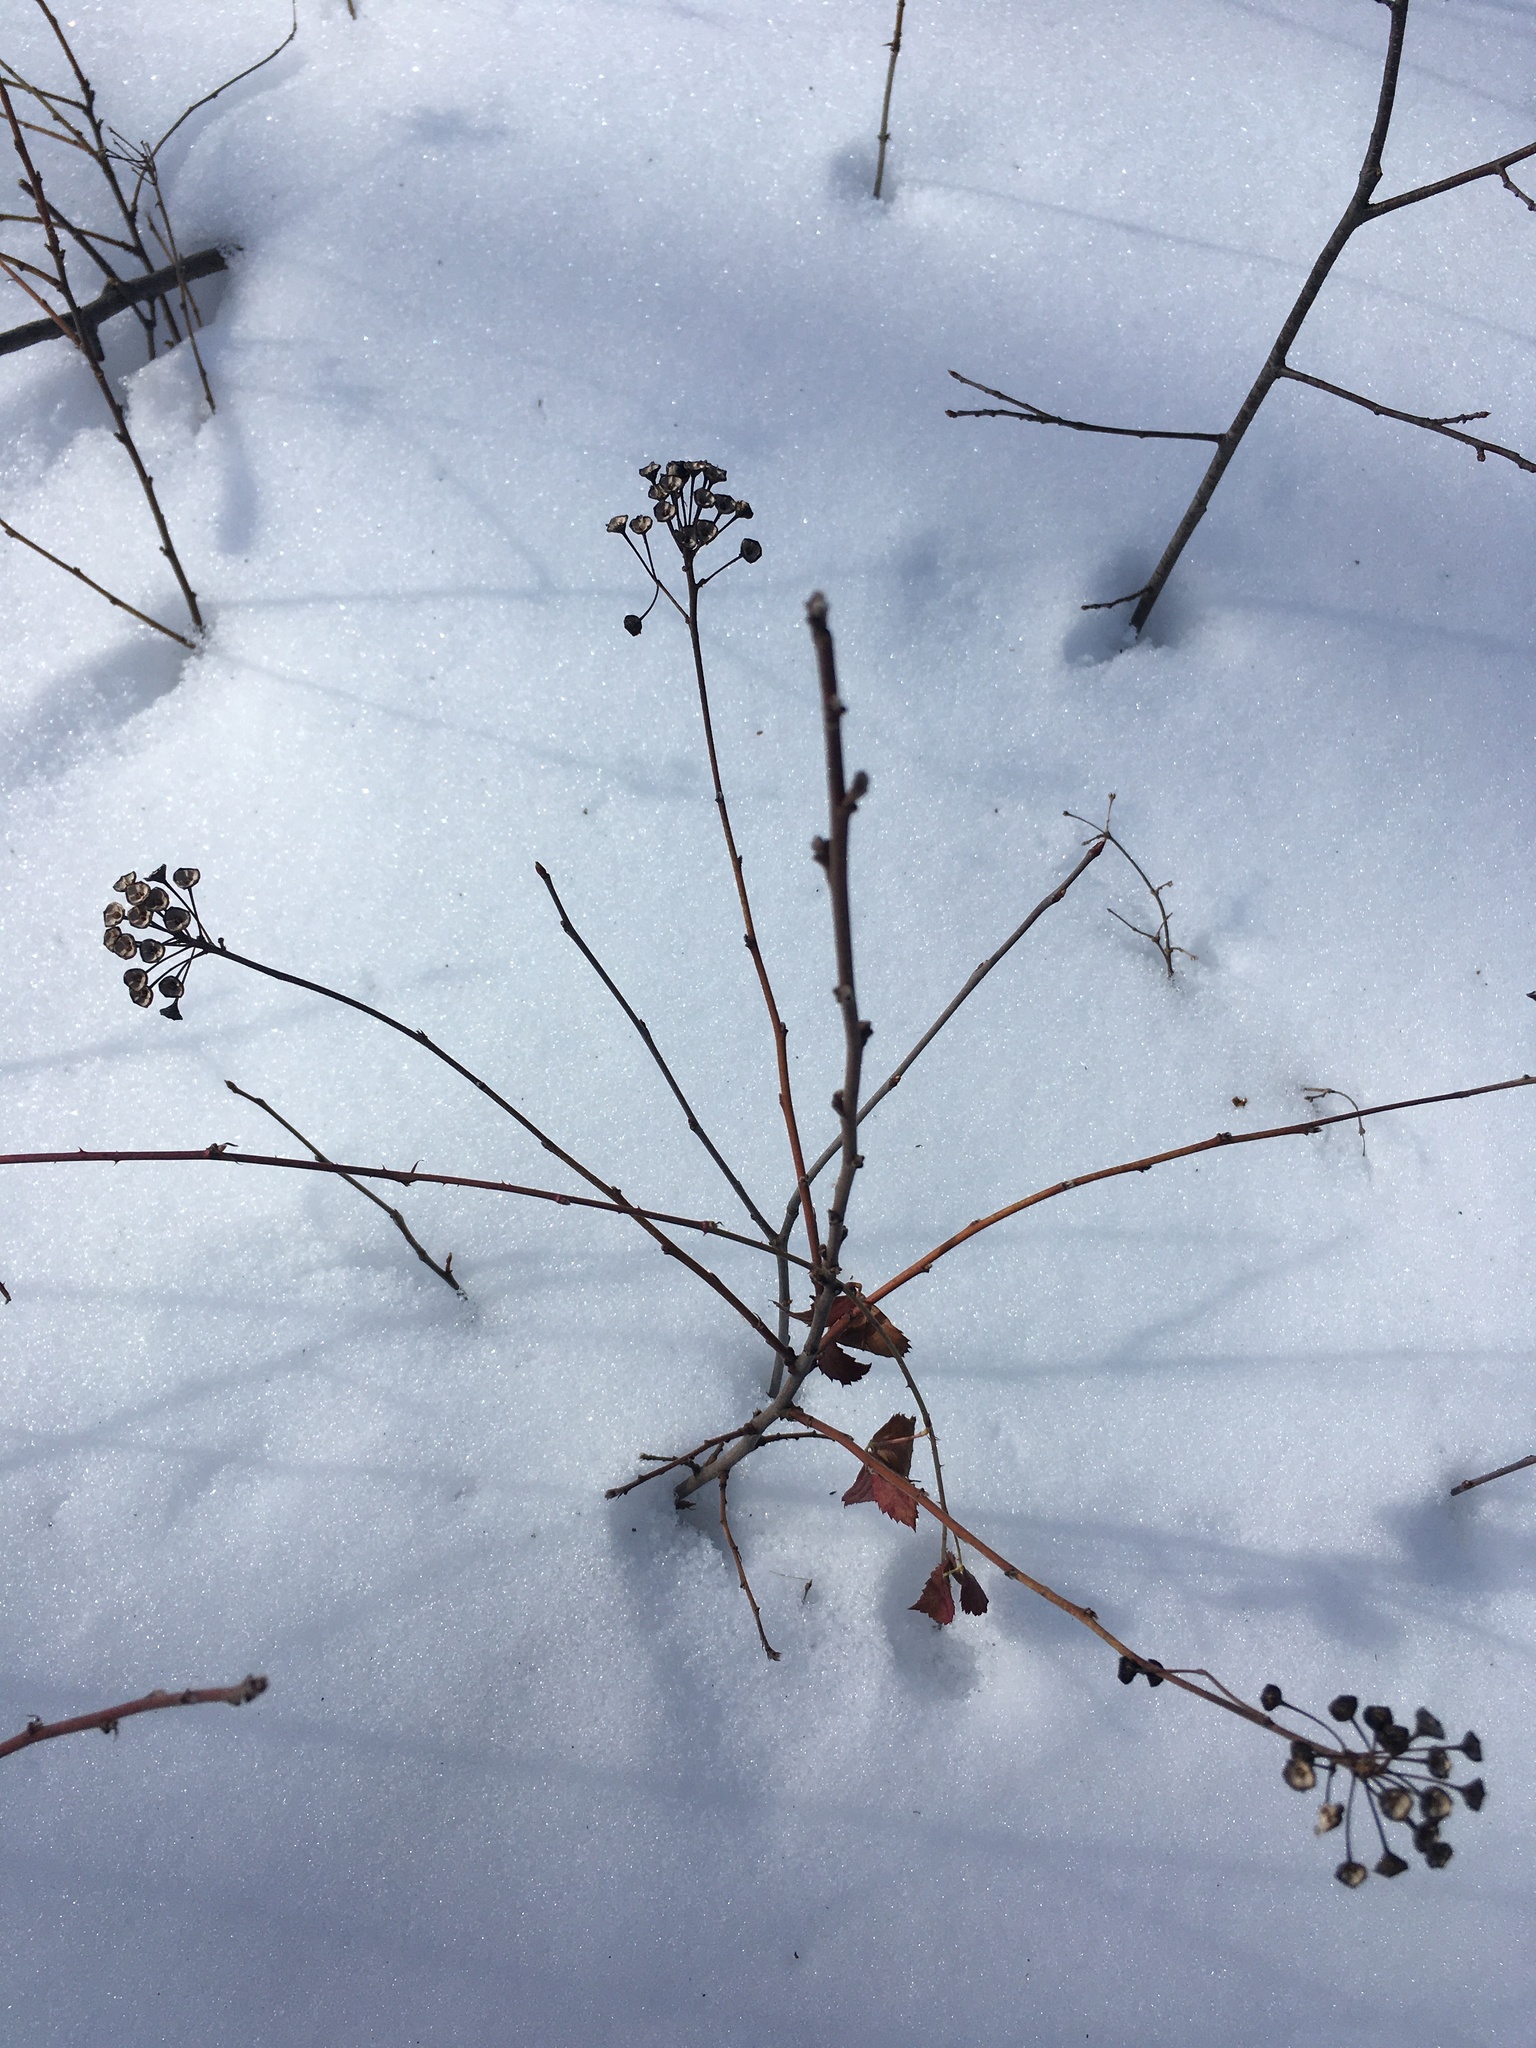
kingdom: Plantae
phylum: Tracheophyta
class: Magnoliopsida
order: Rosales
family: Rhamnaceae
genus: Ceanothus
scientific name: Ceanothus americanus
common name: Redroot
